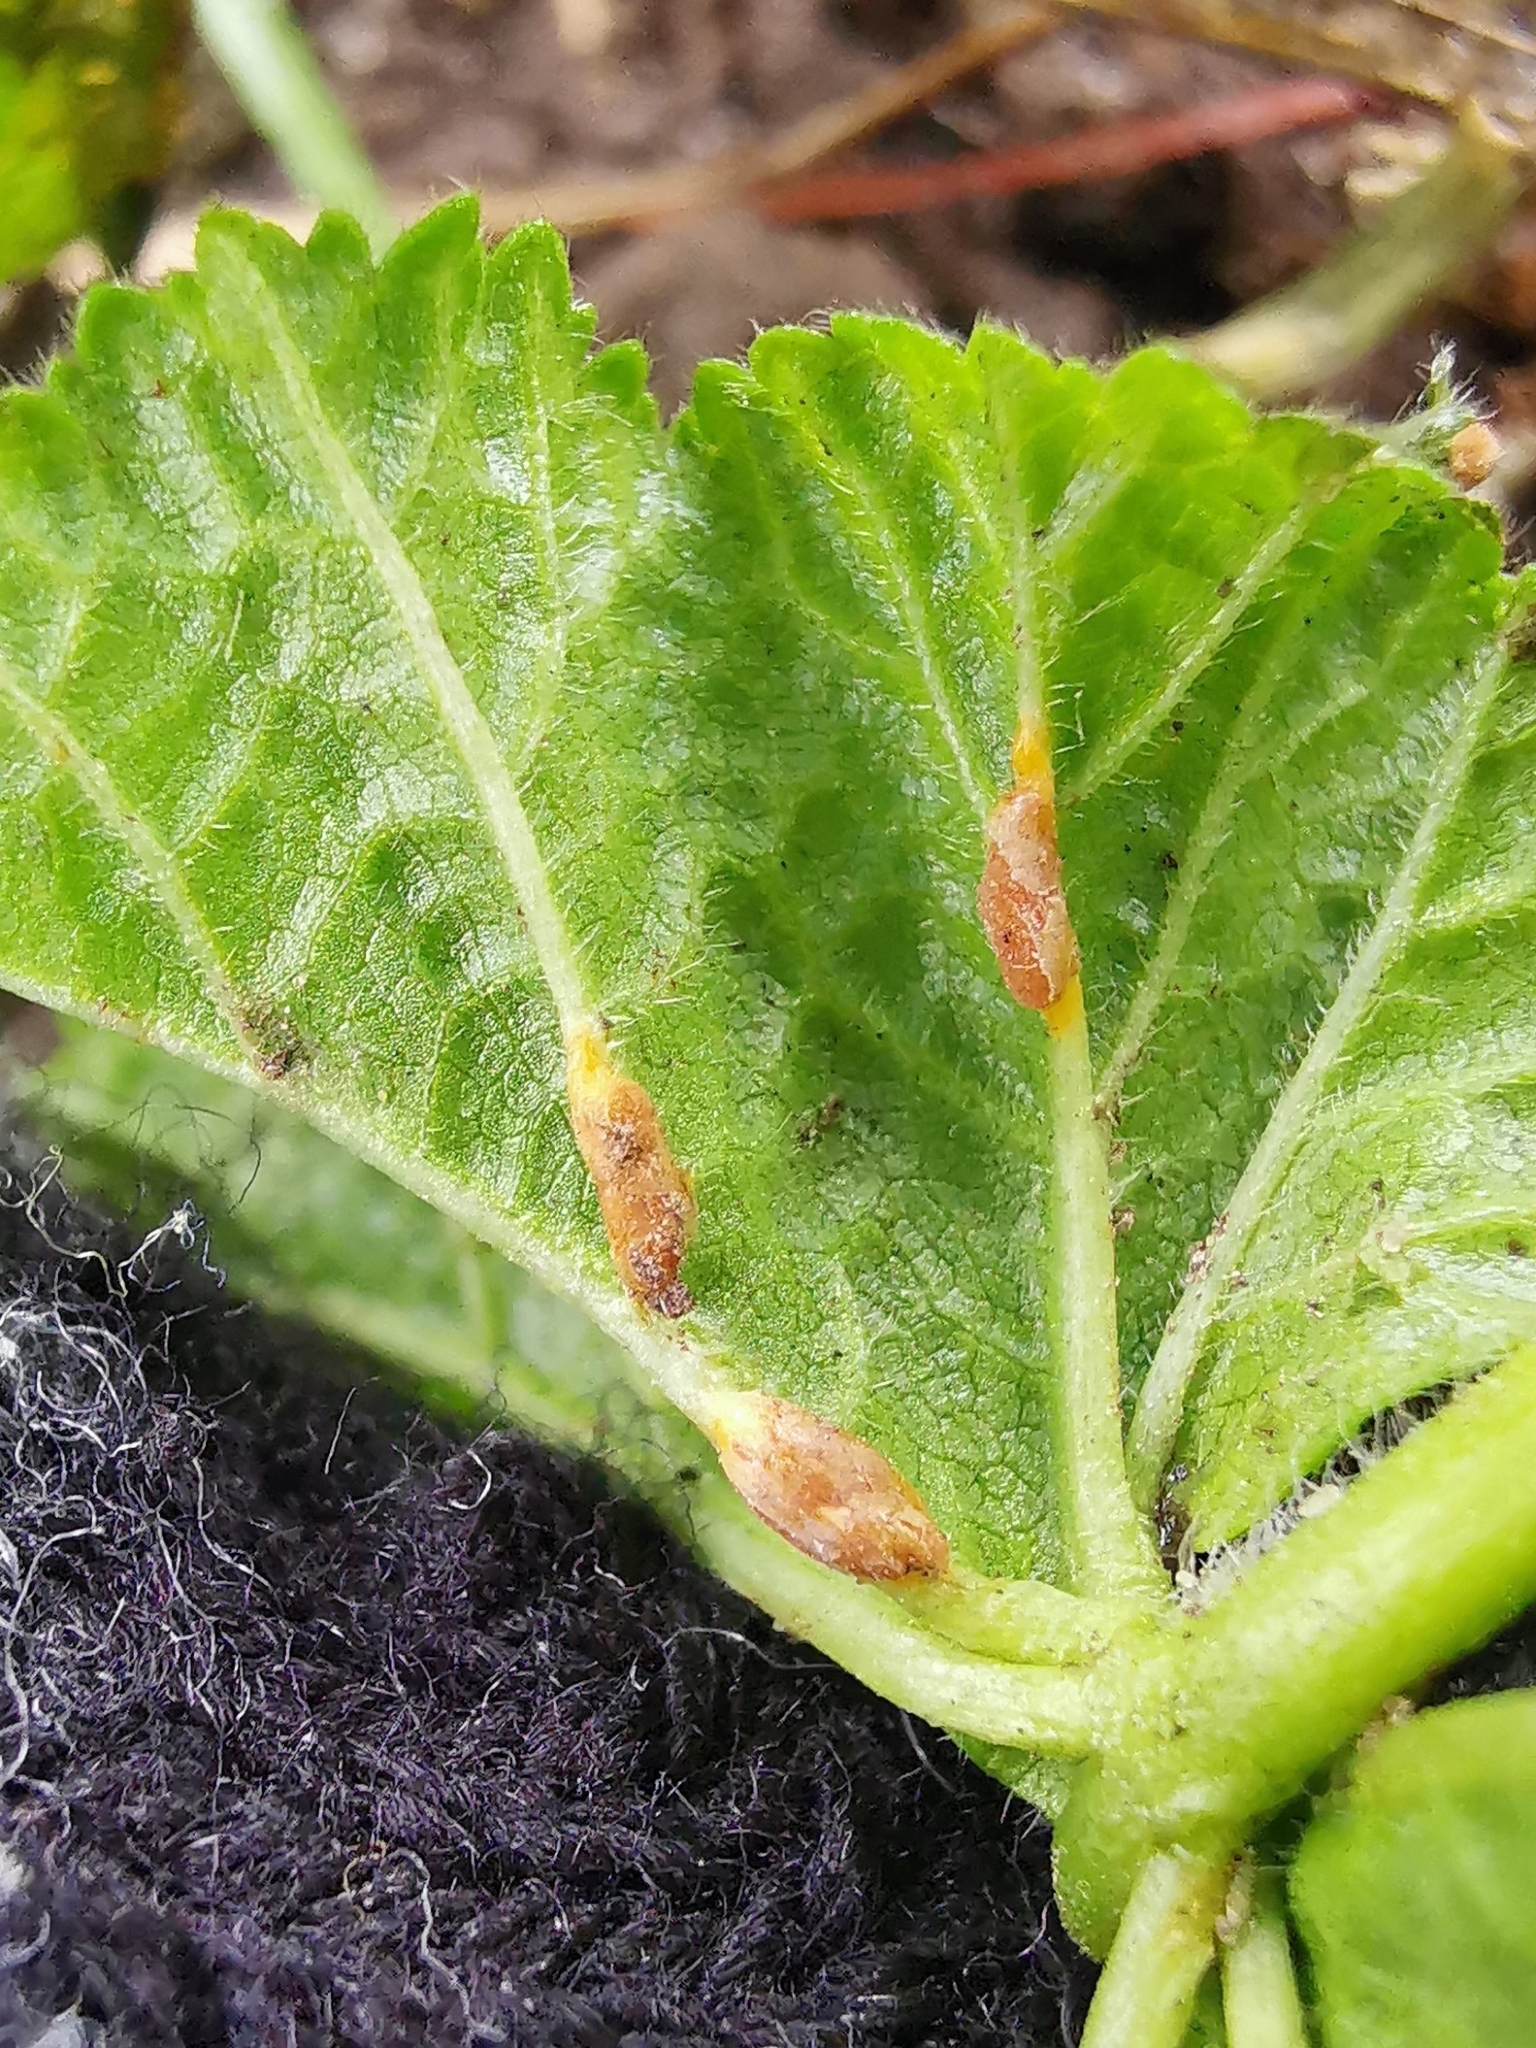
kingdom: Fungi
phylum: Basidiomycota
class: Pucciniomycetes
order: Pucciniales
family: Pucciniaceae
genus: Puccinia
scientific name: Puccinia malvacearum
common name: Hollyhock rust
